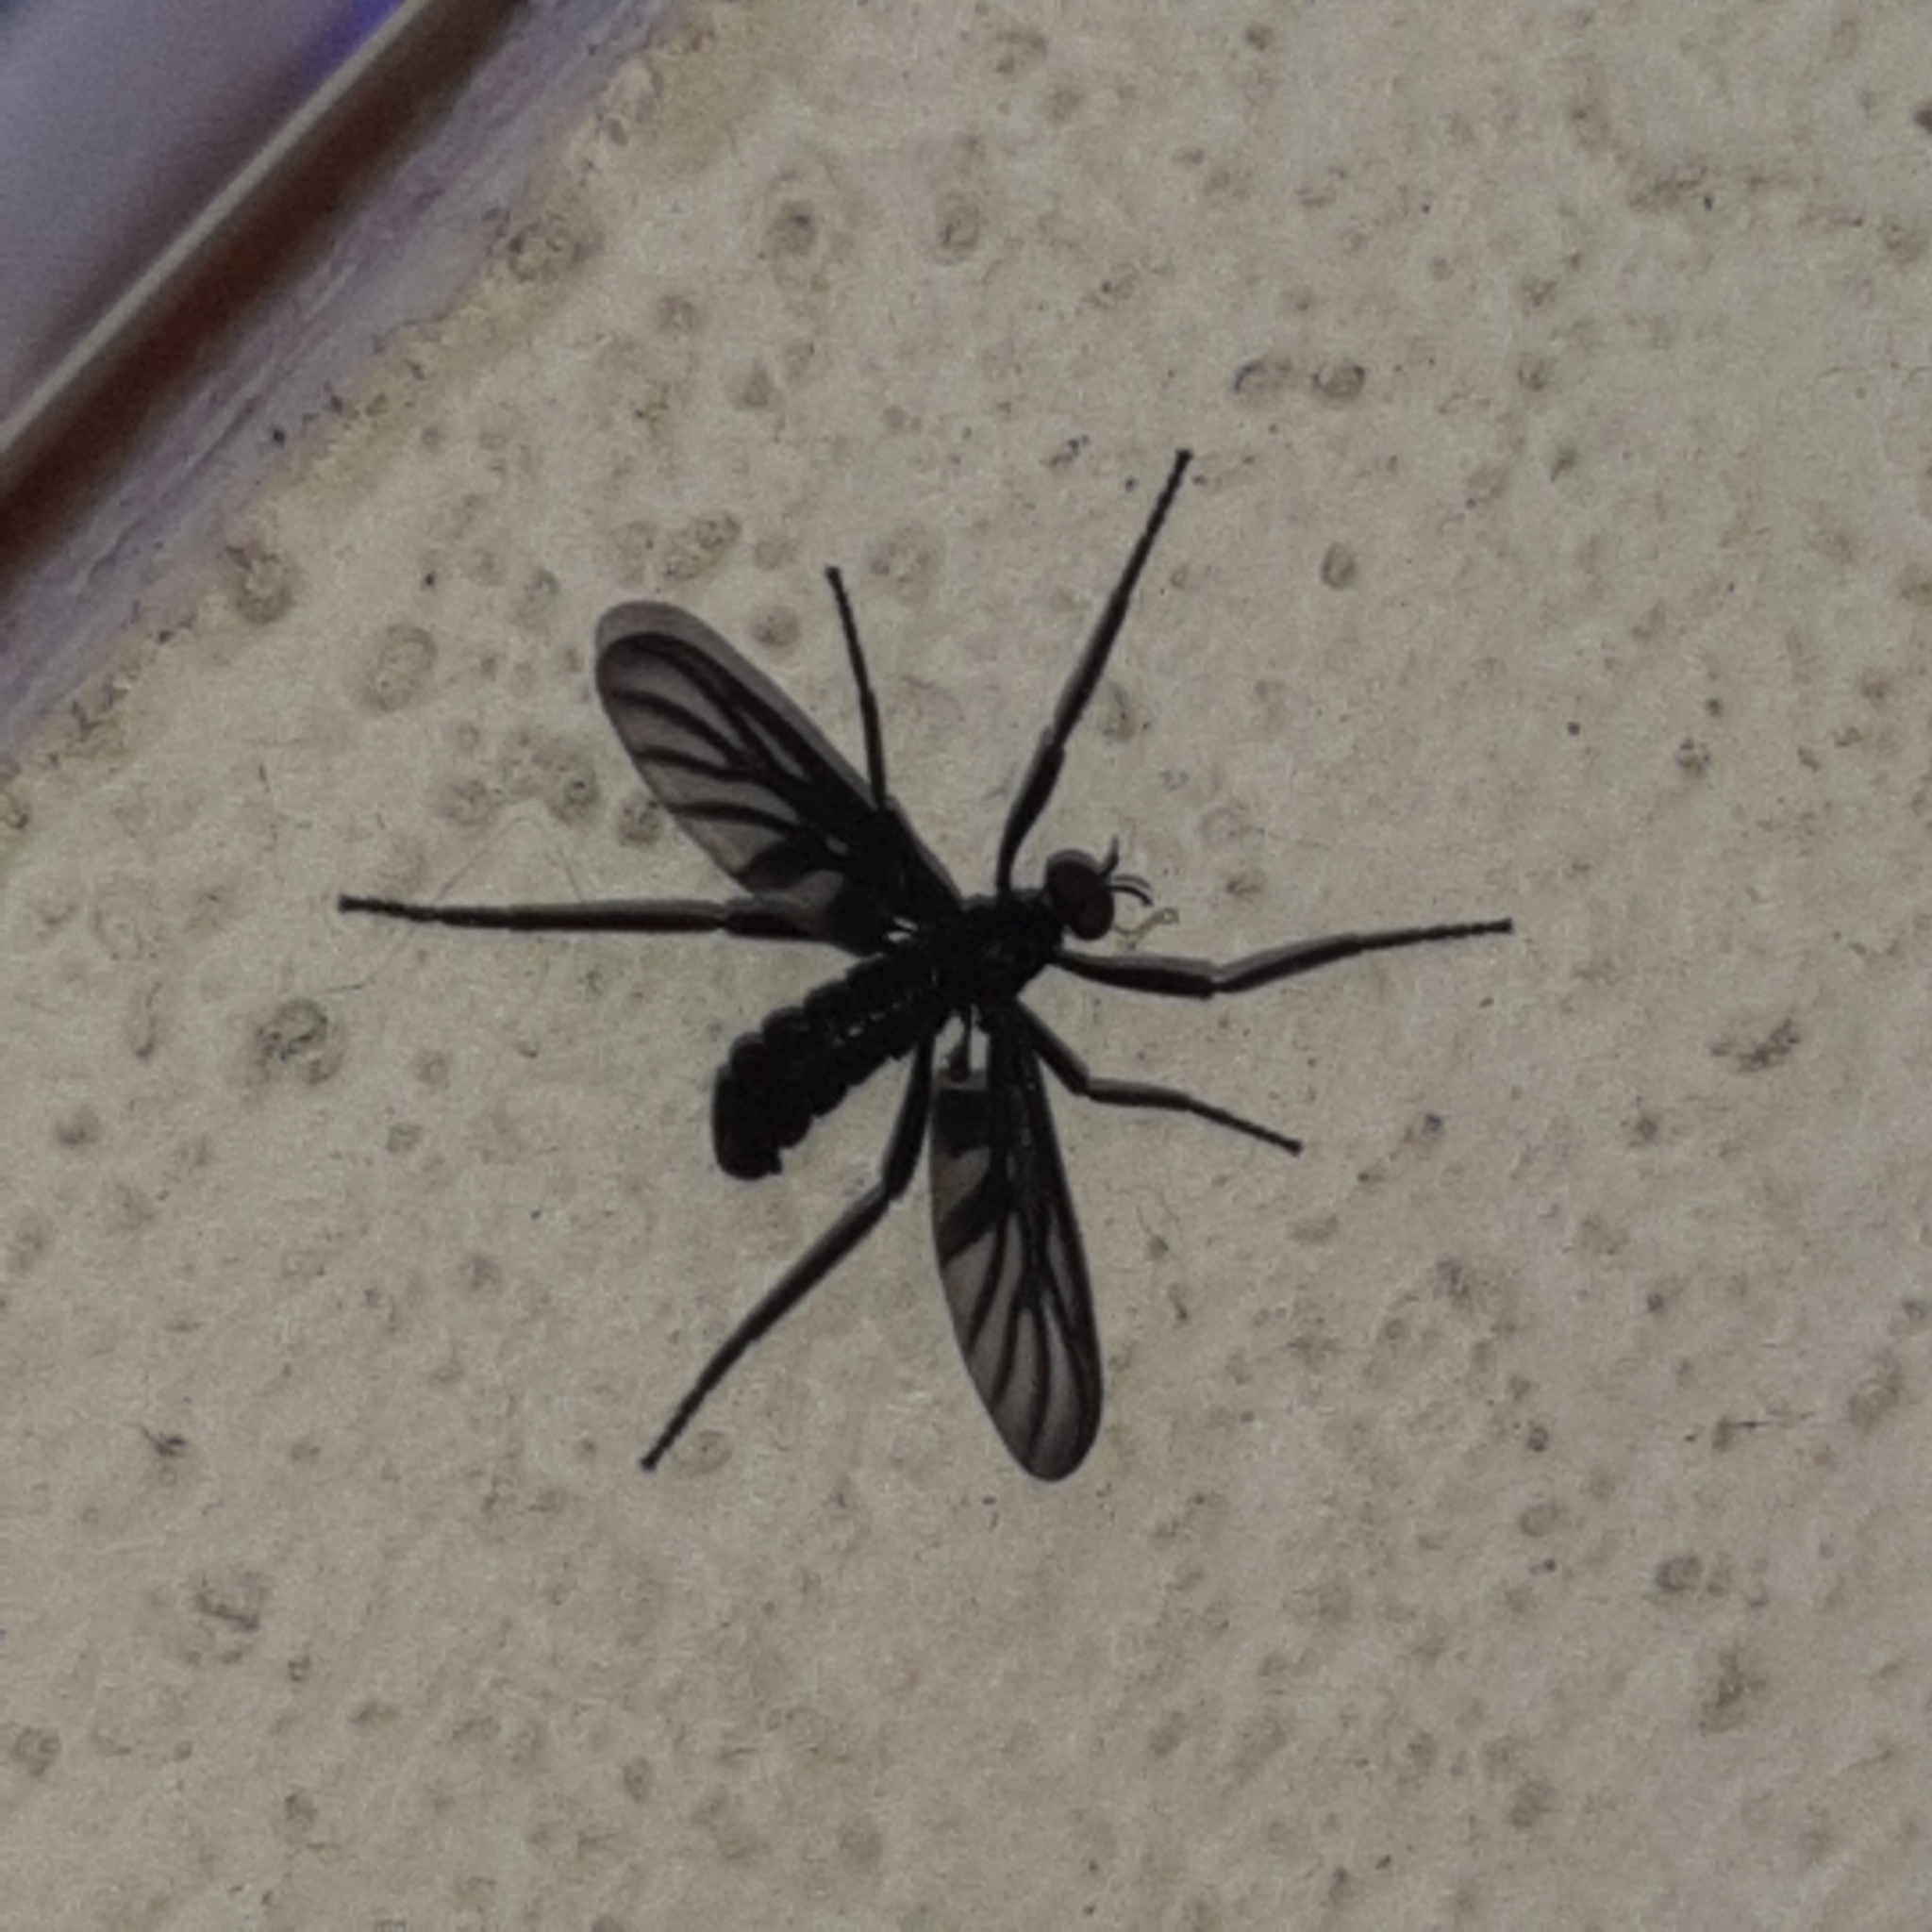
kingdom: Animalia
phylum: Arthropoda
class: Insecta
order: Diptera
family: Bibionidae
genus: Plecia
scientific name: Plecia plagiata
